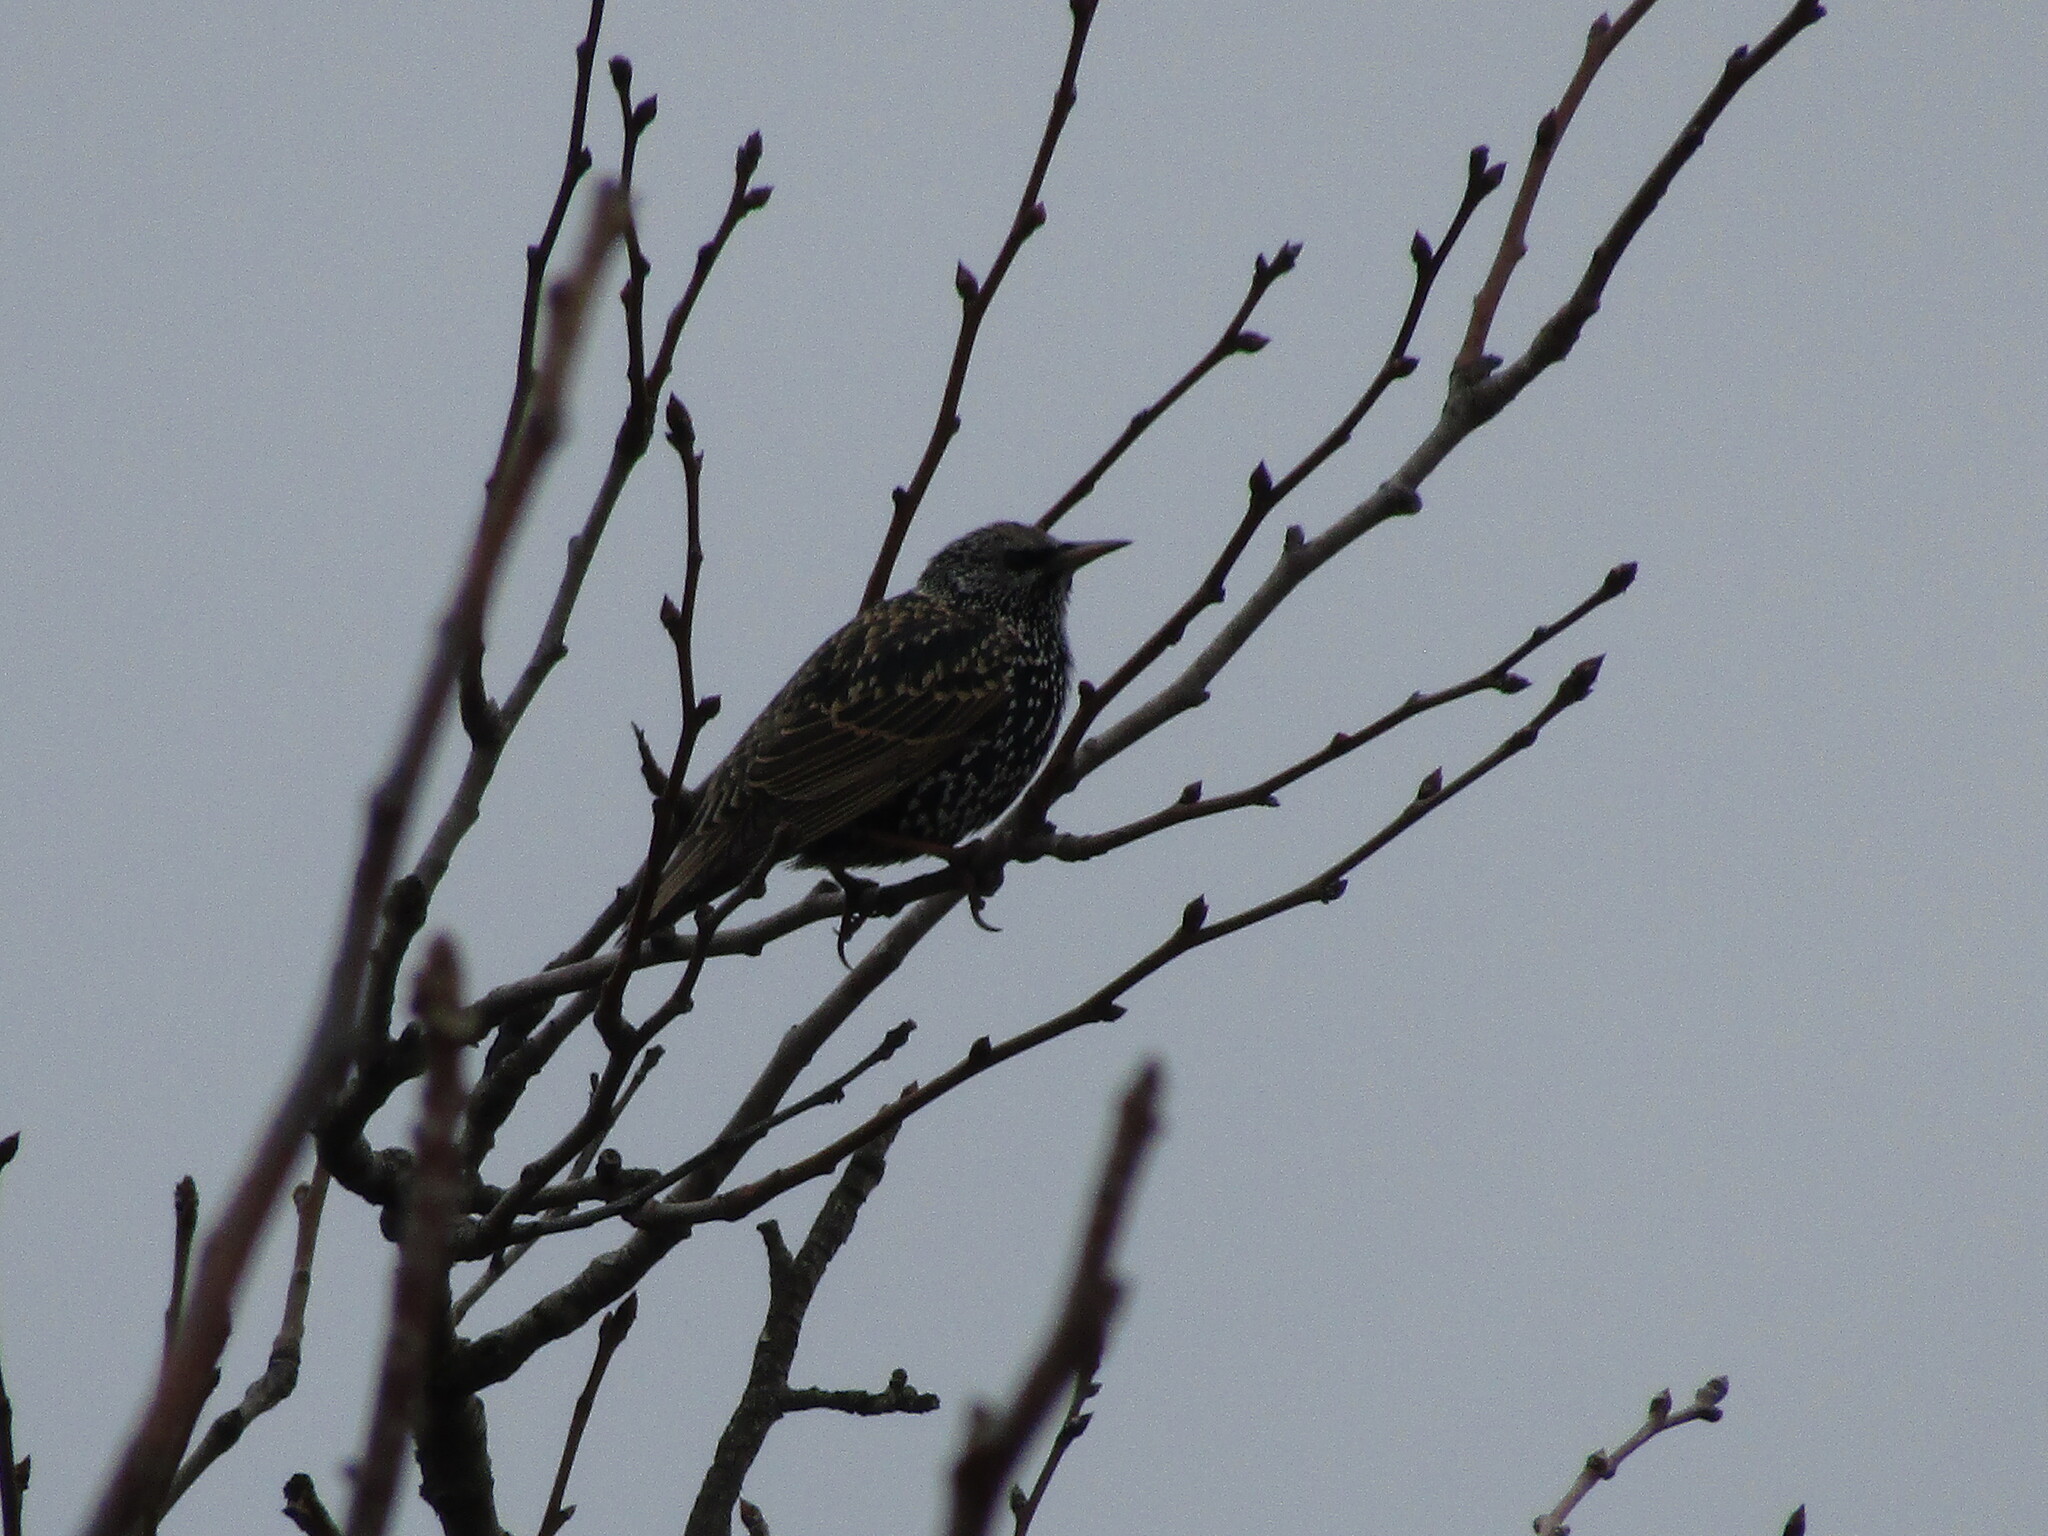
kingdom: Animalia
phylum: Chordata
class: Aves
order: Passeriformes
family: Sturnidae
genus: Sturnus
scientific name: Sturnus vulgaris
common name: Common starling
